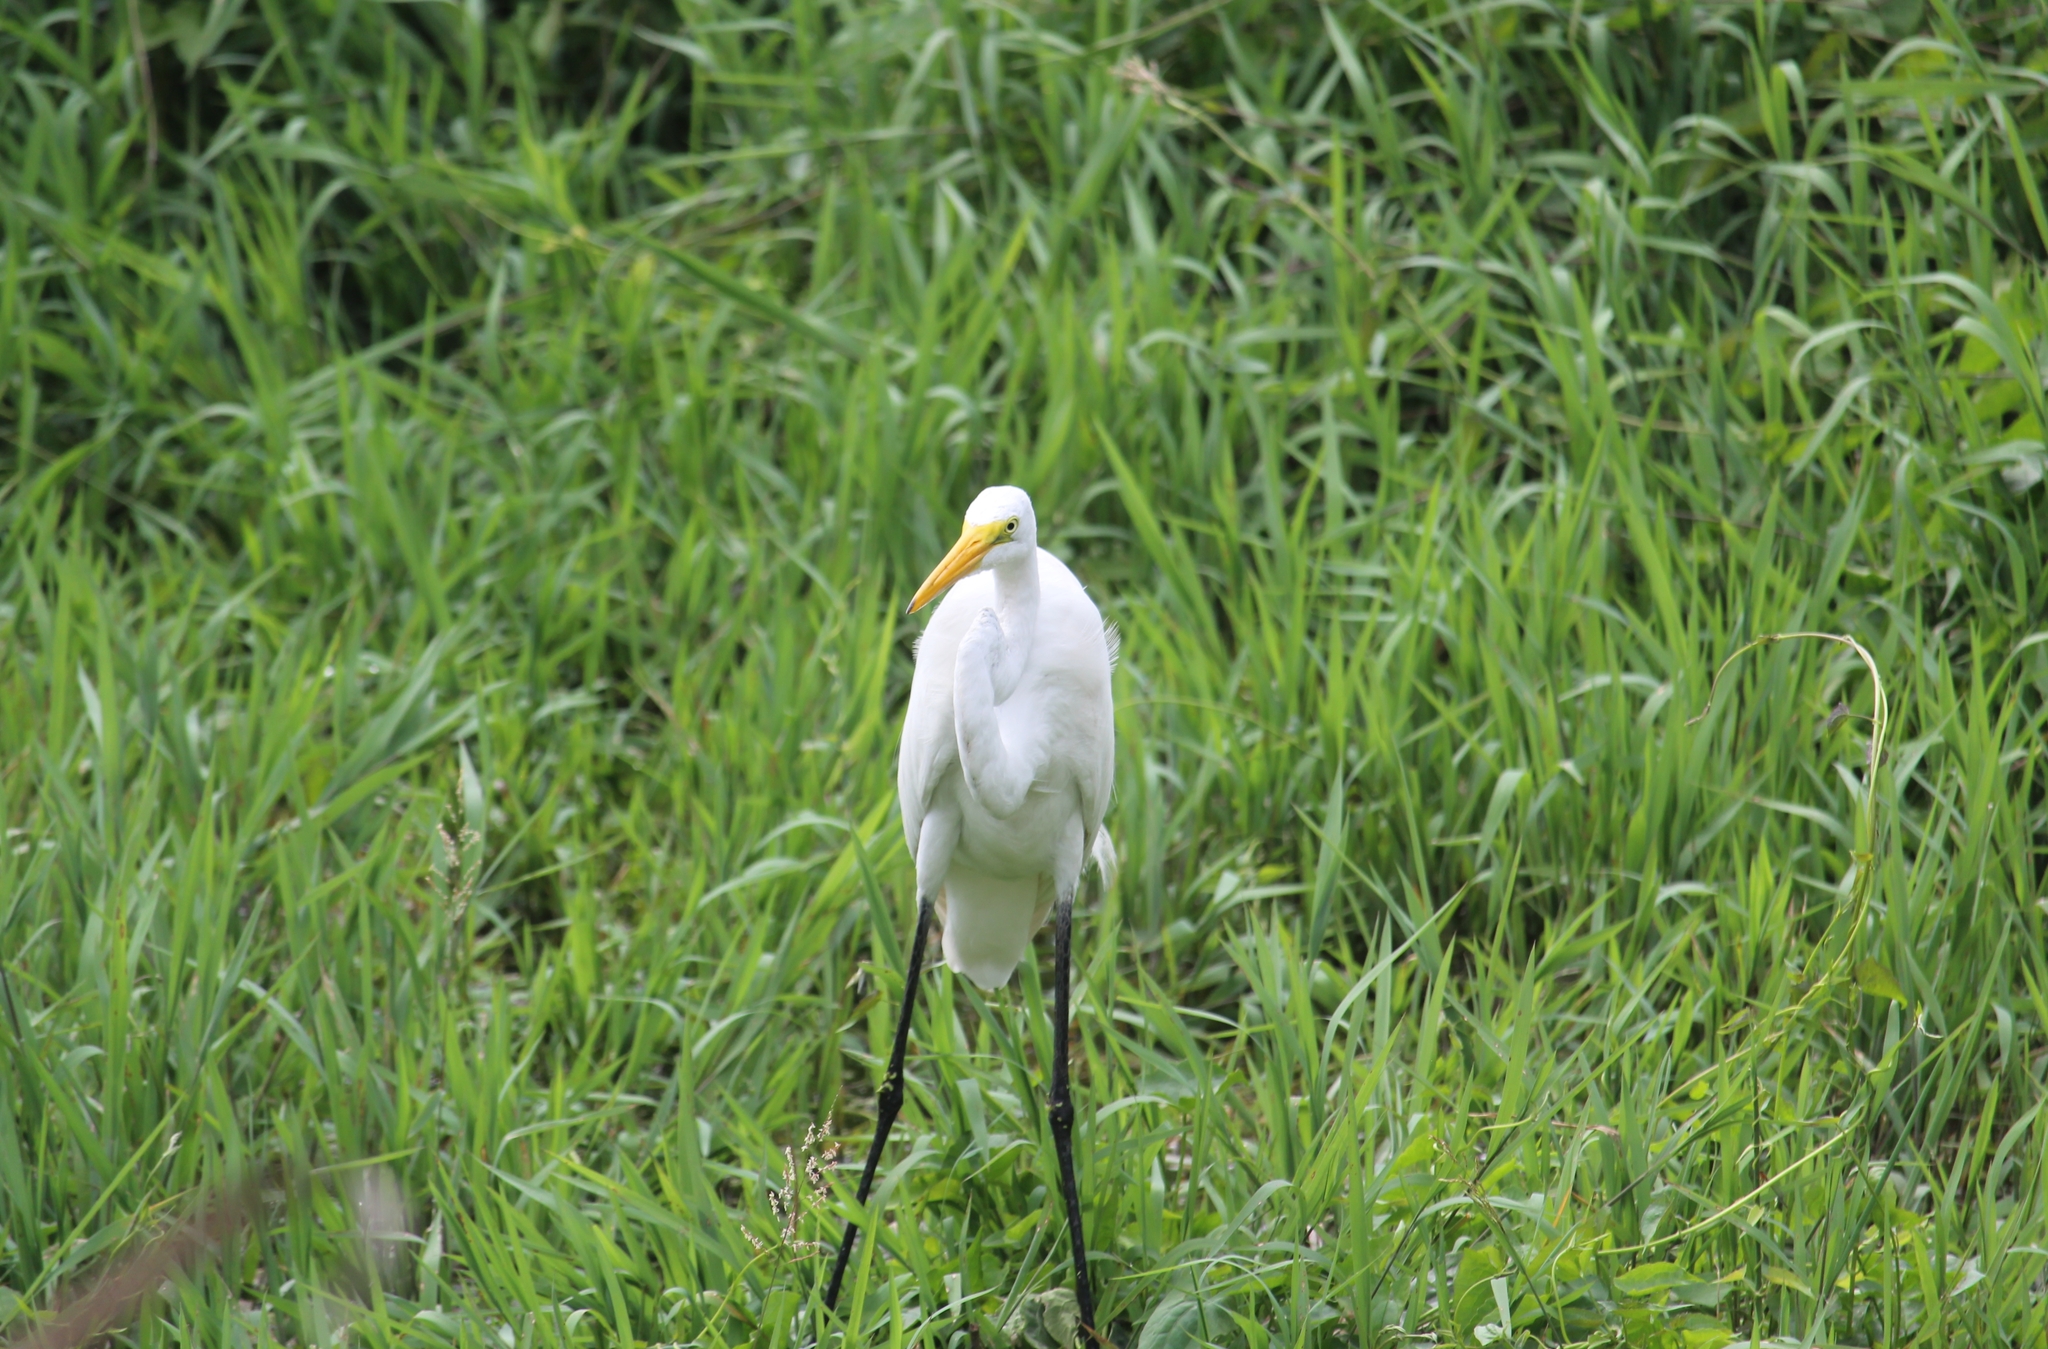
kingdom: Animalia
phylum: Chordata
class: Aves
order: Pelecaniformes
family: Ardeidae
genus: Ardea
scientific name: Ardea alba
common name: Great egret
